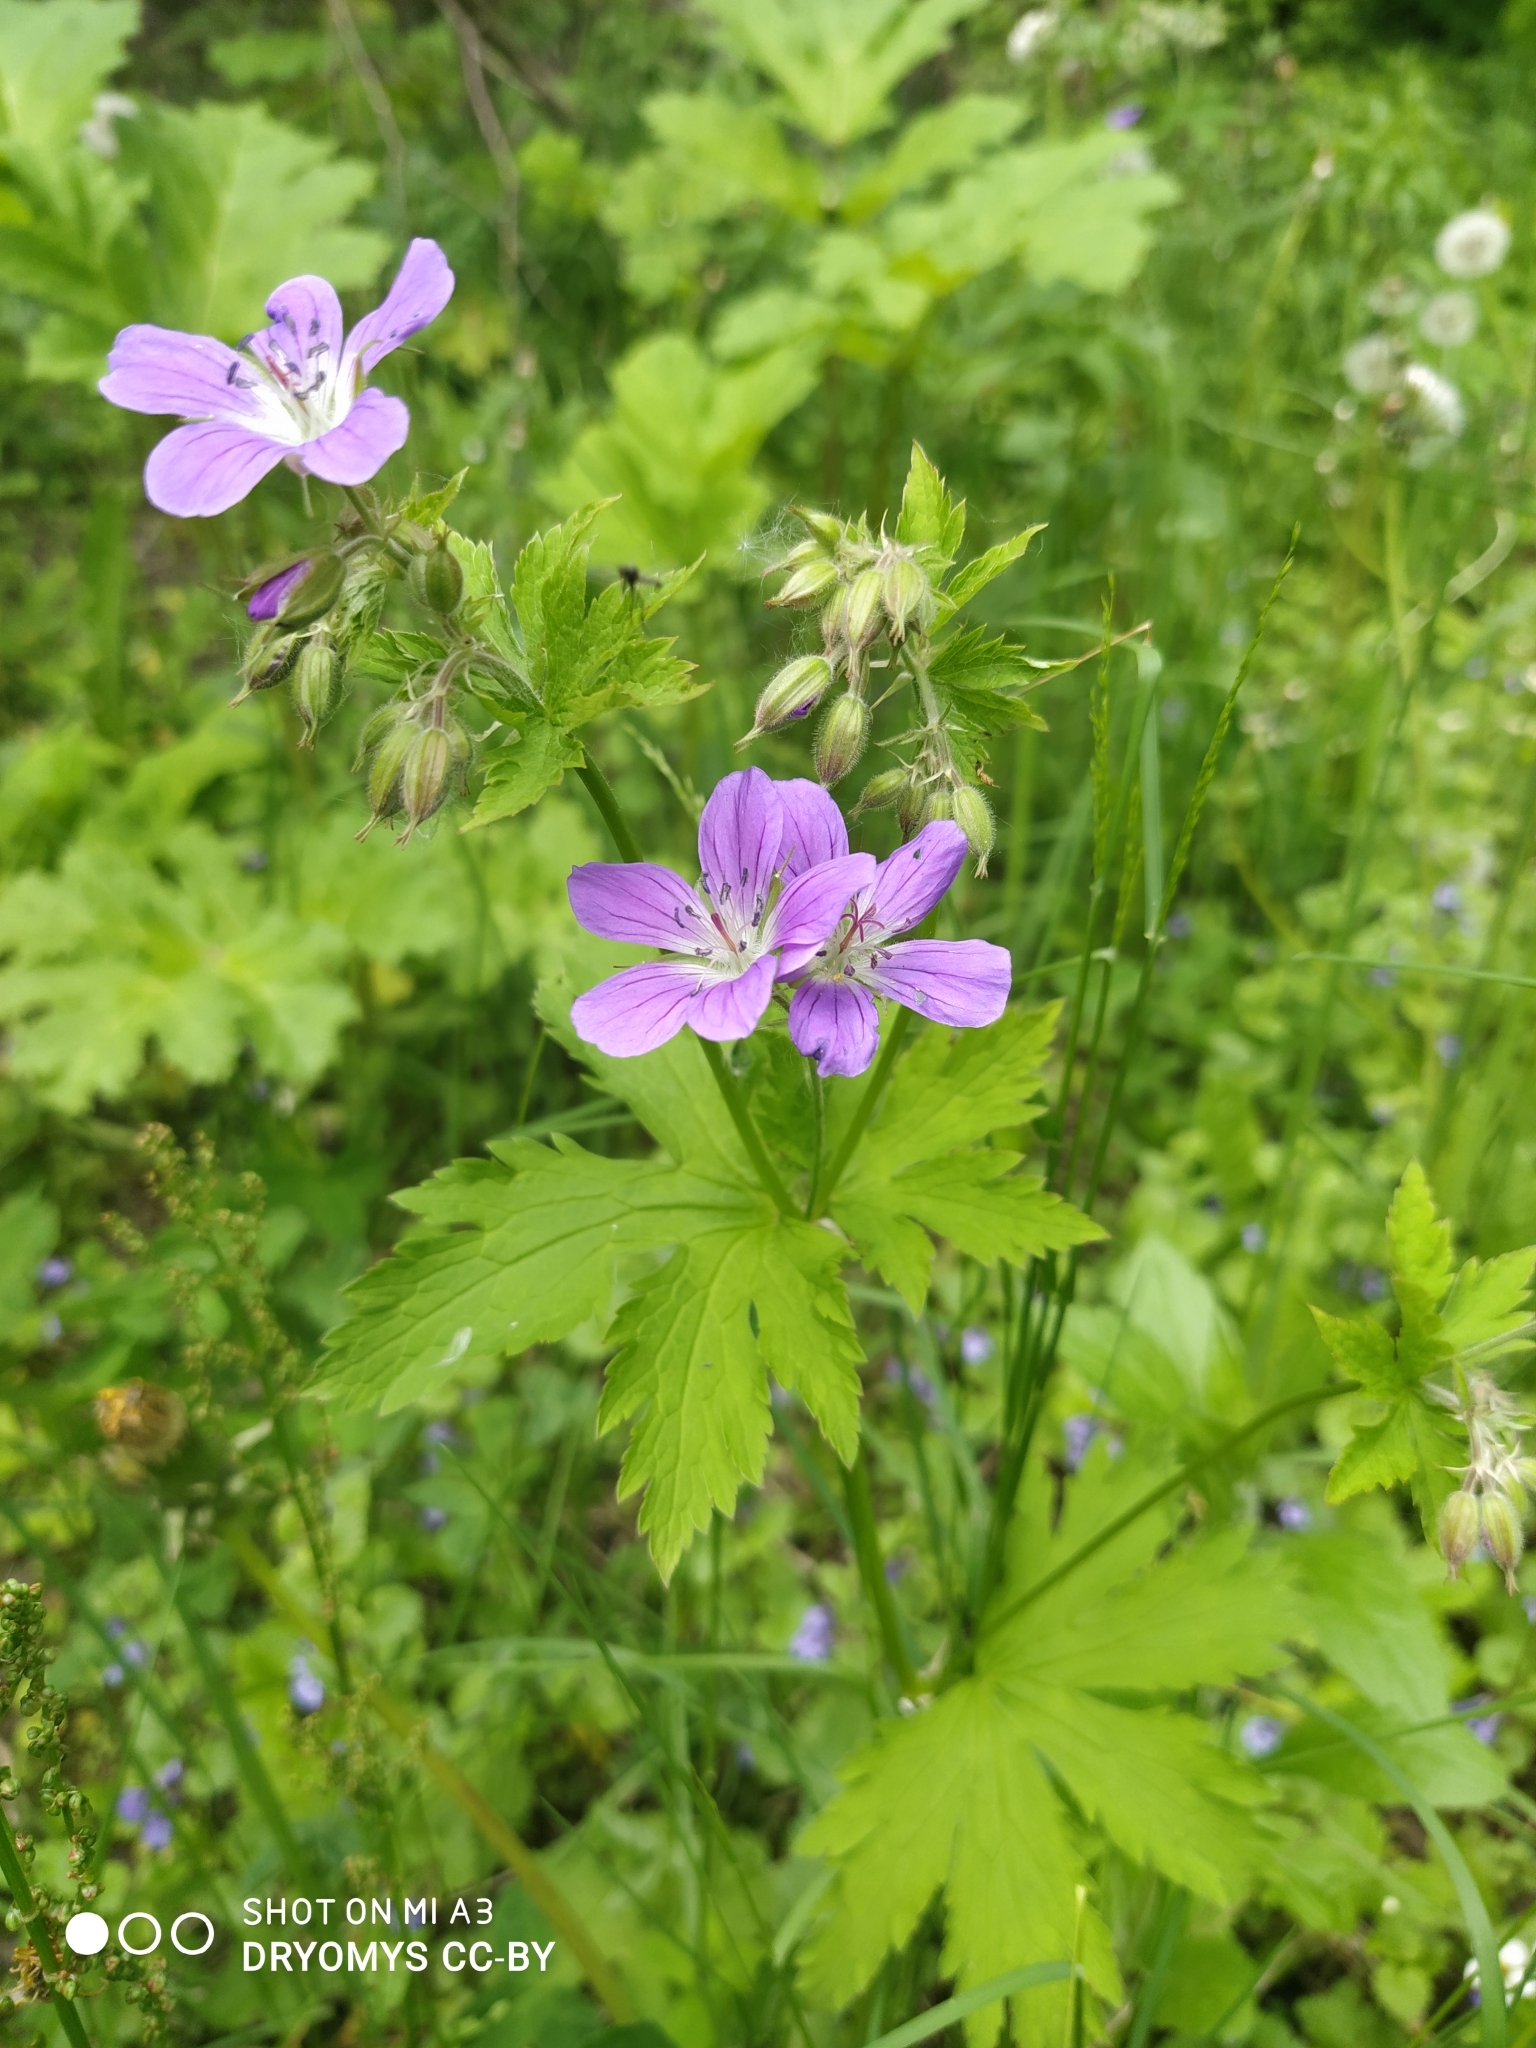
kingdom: Plantae
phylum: Tracheophyta
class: Magnoliopsida
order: Geraniales
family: Geraniaceae
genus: Geranium
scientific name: Geranium sylvaticum
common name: Wood crane's-bill
